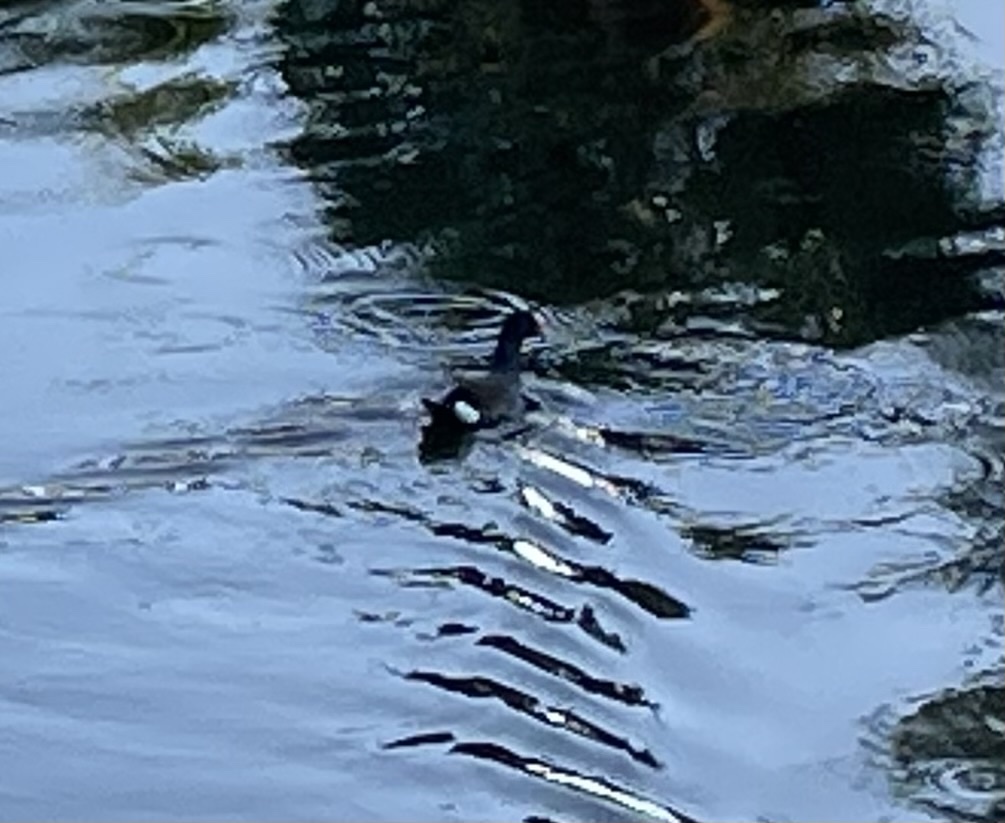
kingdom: Animalia
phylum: Chordata
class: Aves
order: Gruiformes
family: Rallidae
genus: Gallinula
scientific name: Gallinula chloropus
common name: Common moorhen
